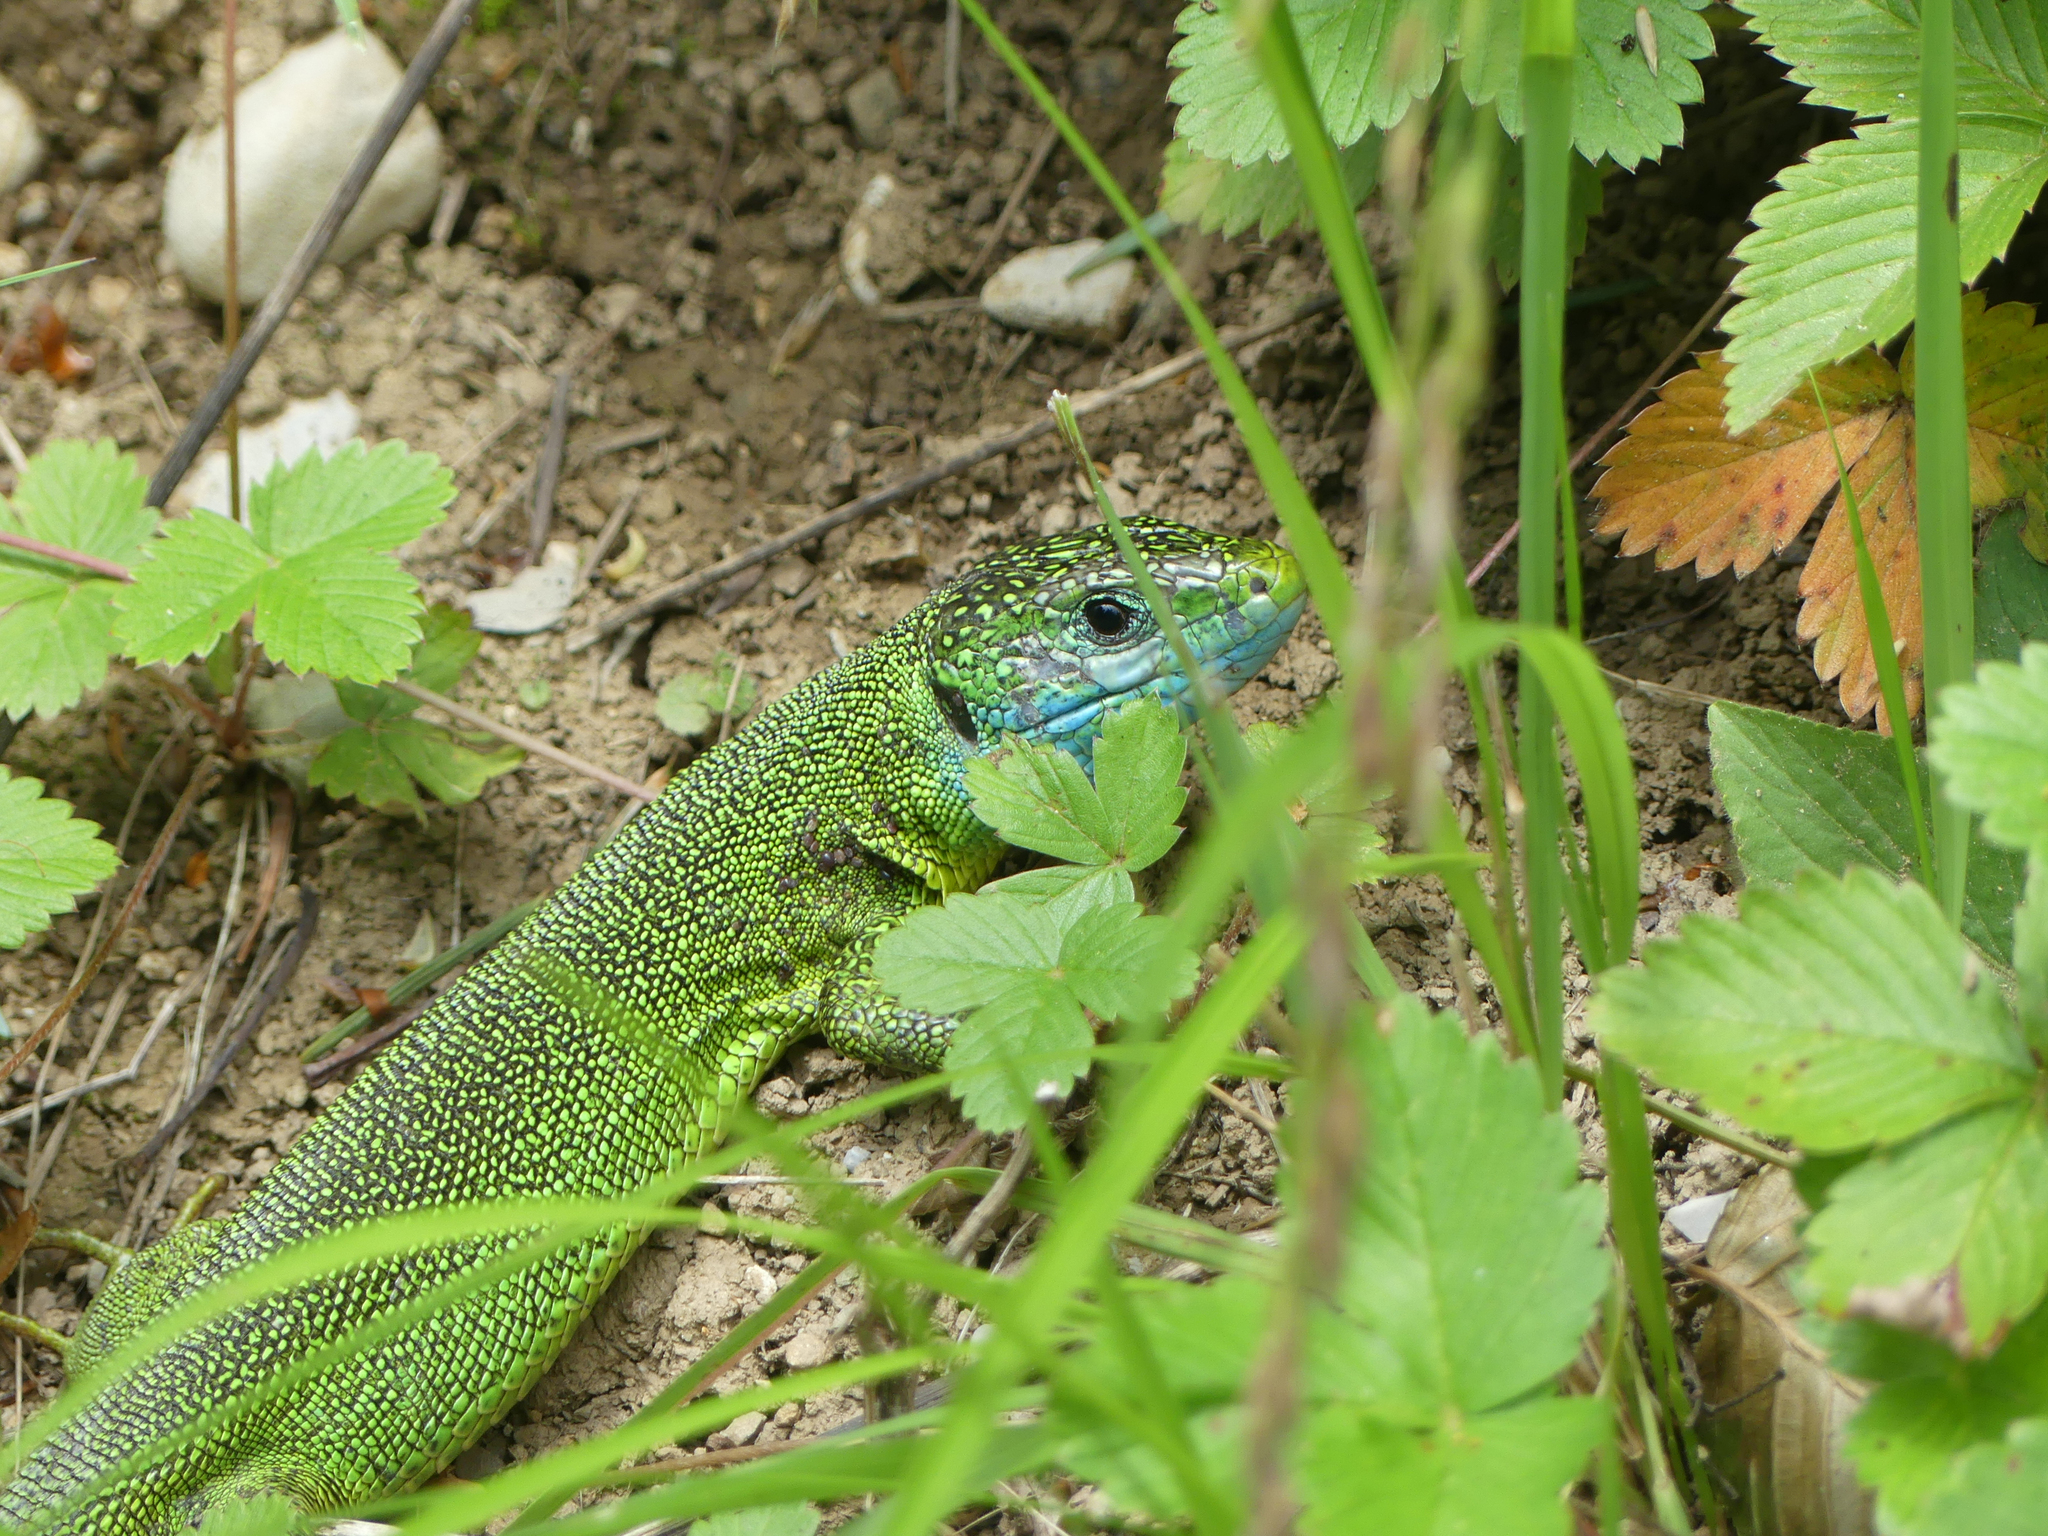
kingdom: Animalia
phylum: Chordata
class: Squamata
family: Lacertidae
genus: Lacerta
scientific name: Lacerta viridis
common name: European green lizard
